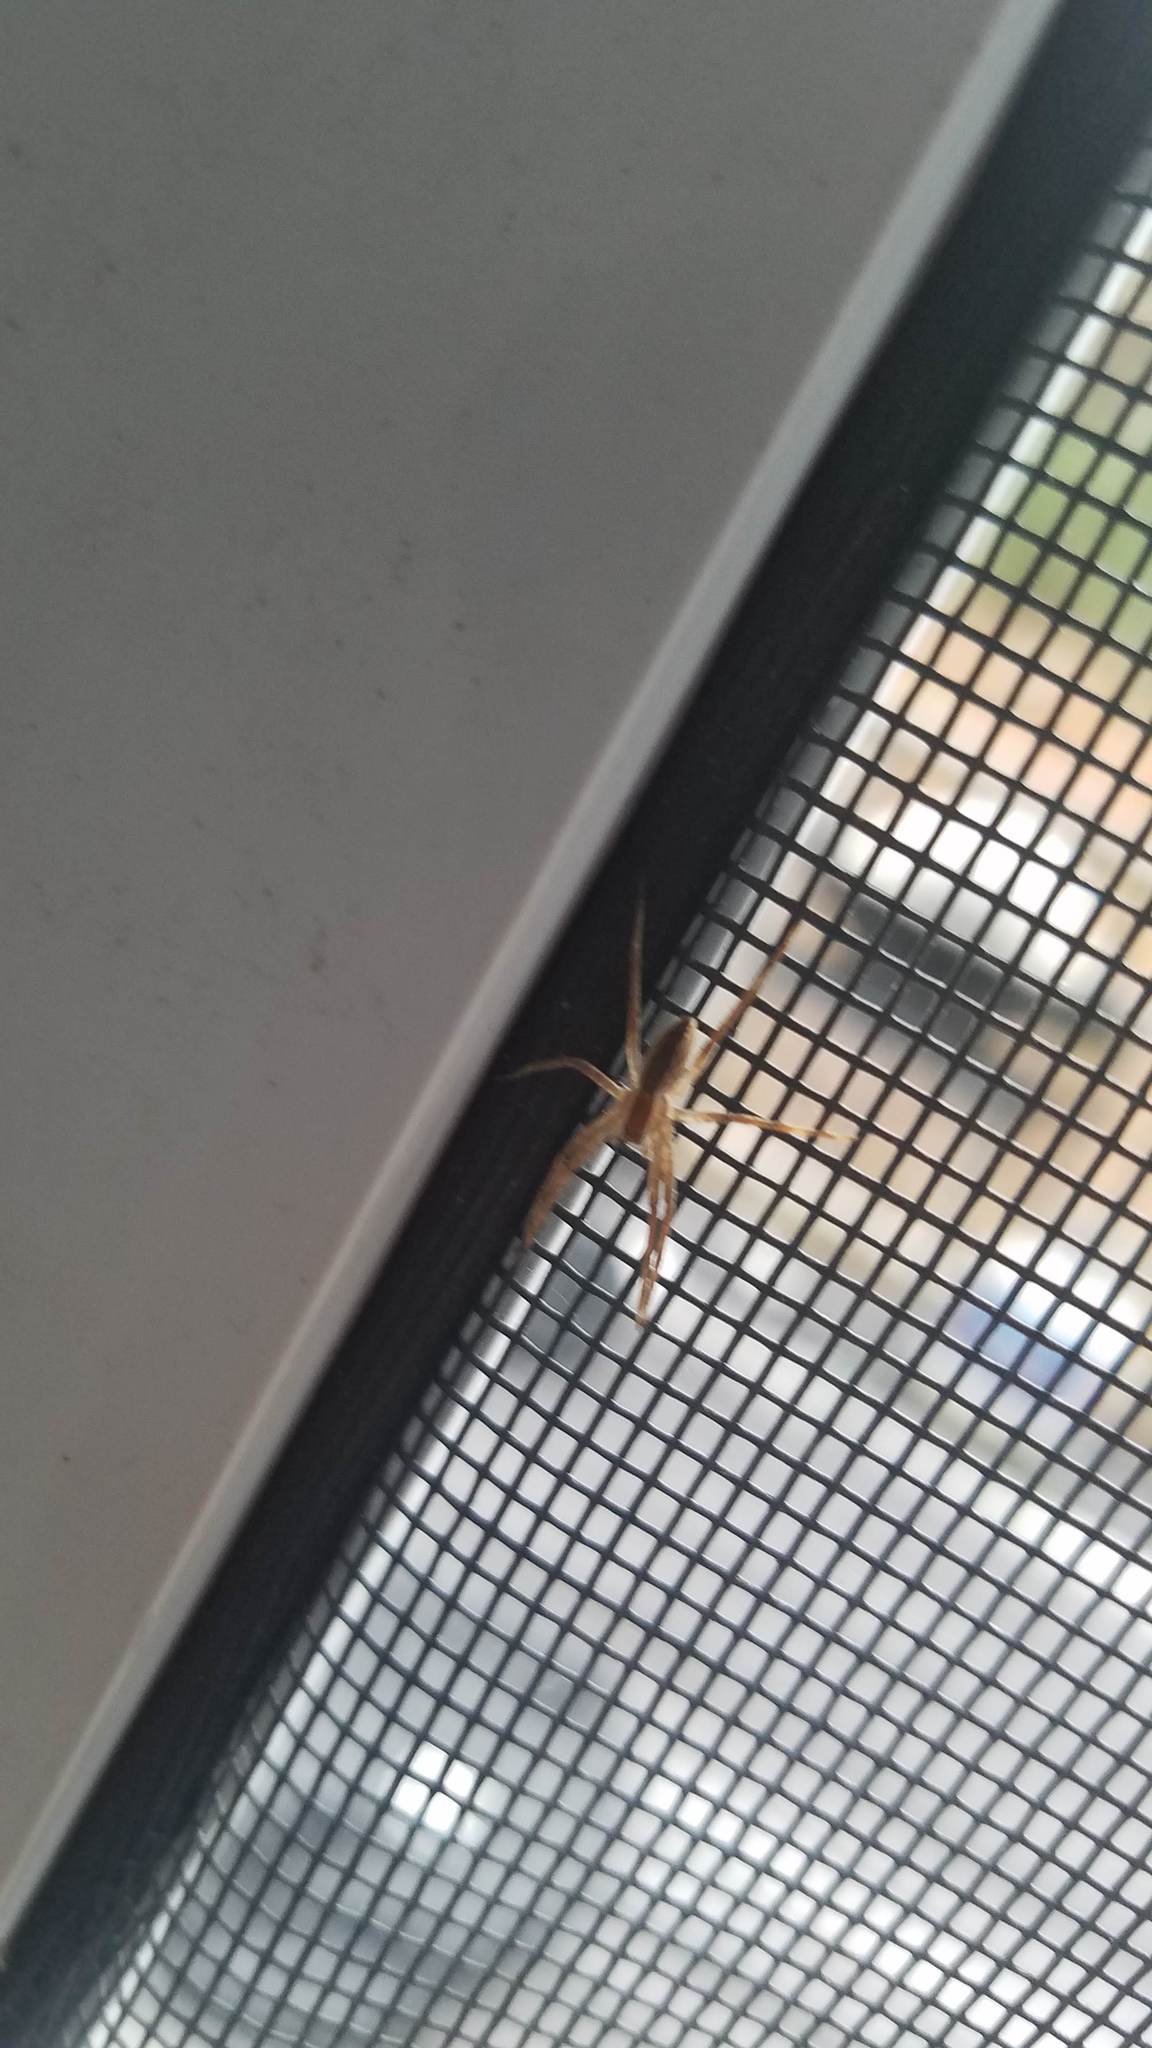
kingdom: Animalia
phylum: Arthropoda
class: Arachnida
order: Araneae
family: Pisauridae
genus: Pisaurina
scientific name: Pisaurina mira
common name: American nursery web spider
